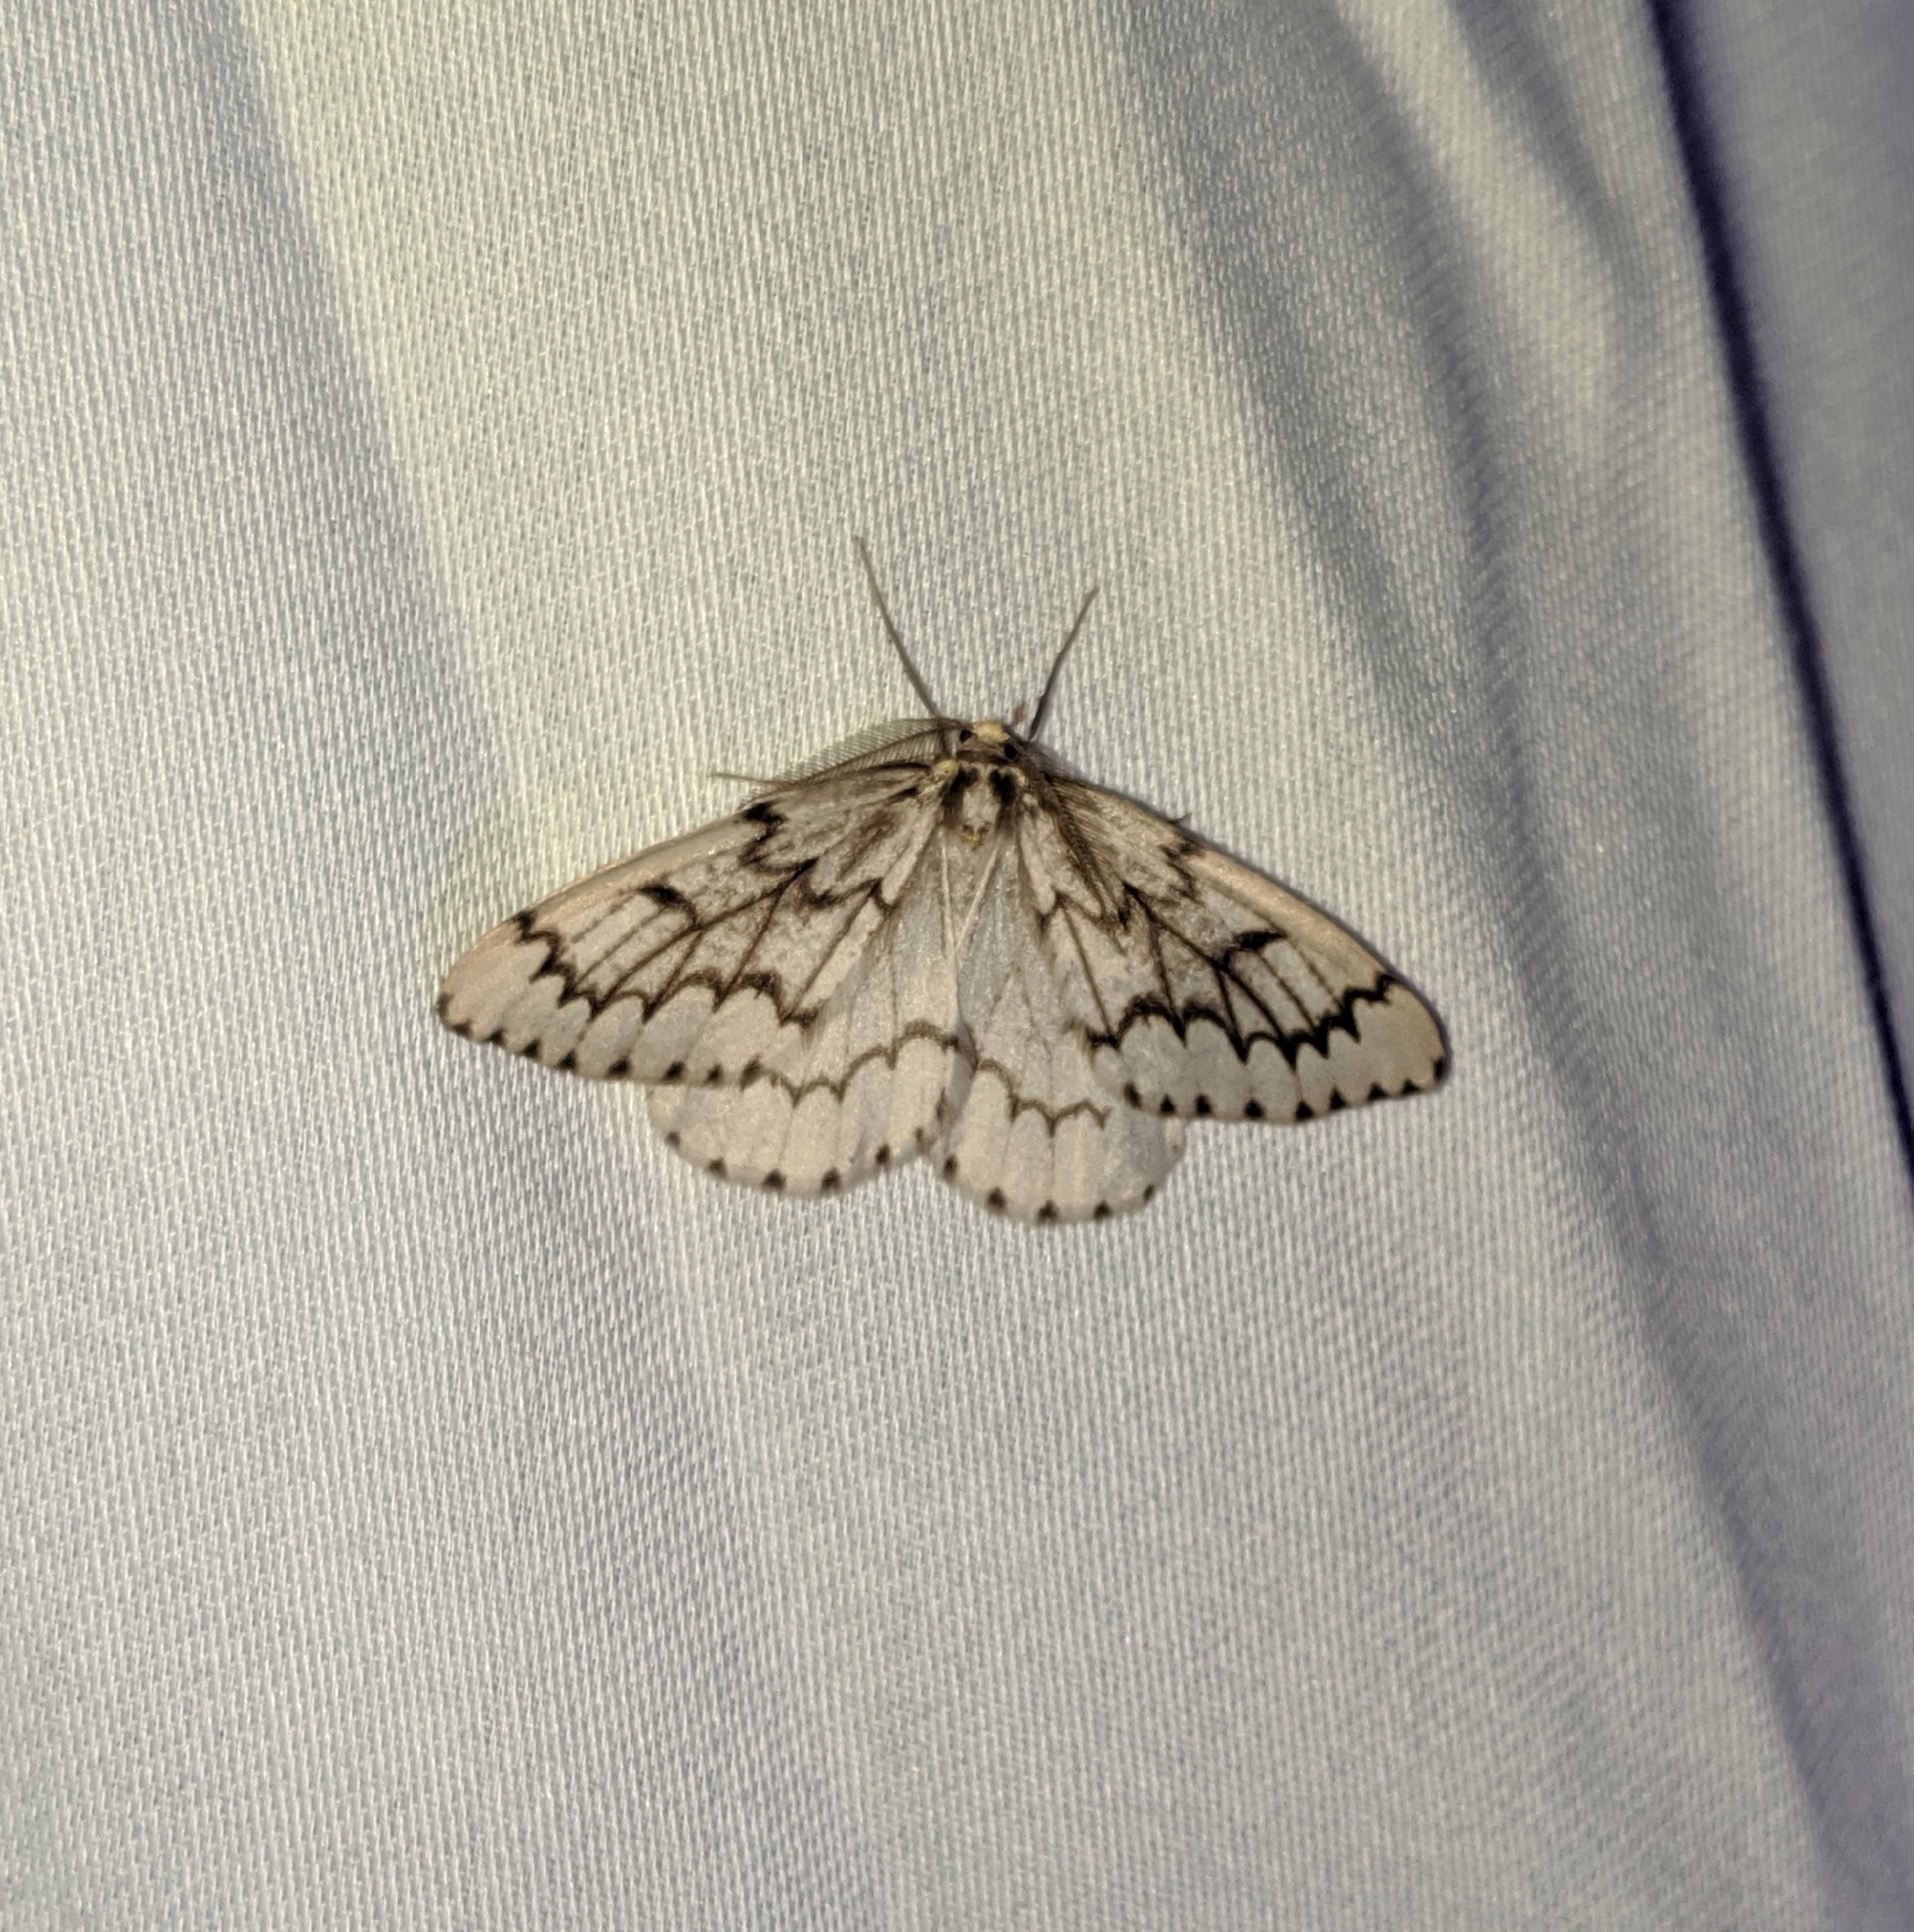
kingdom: Animalia
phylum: Arthropoda
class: Insecta
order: Lepidoptera
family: Geometridae
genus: Nepytia
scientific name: Nepytia phantasmaria
